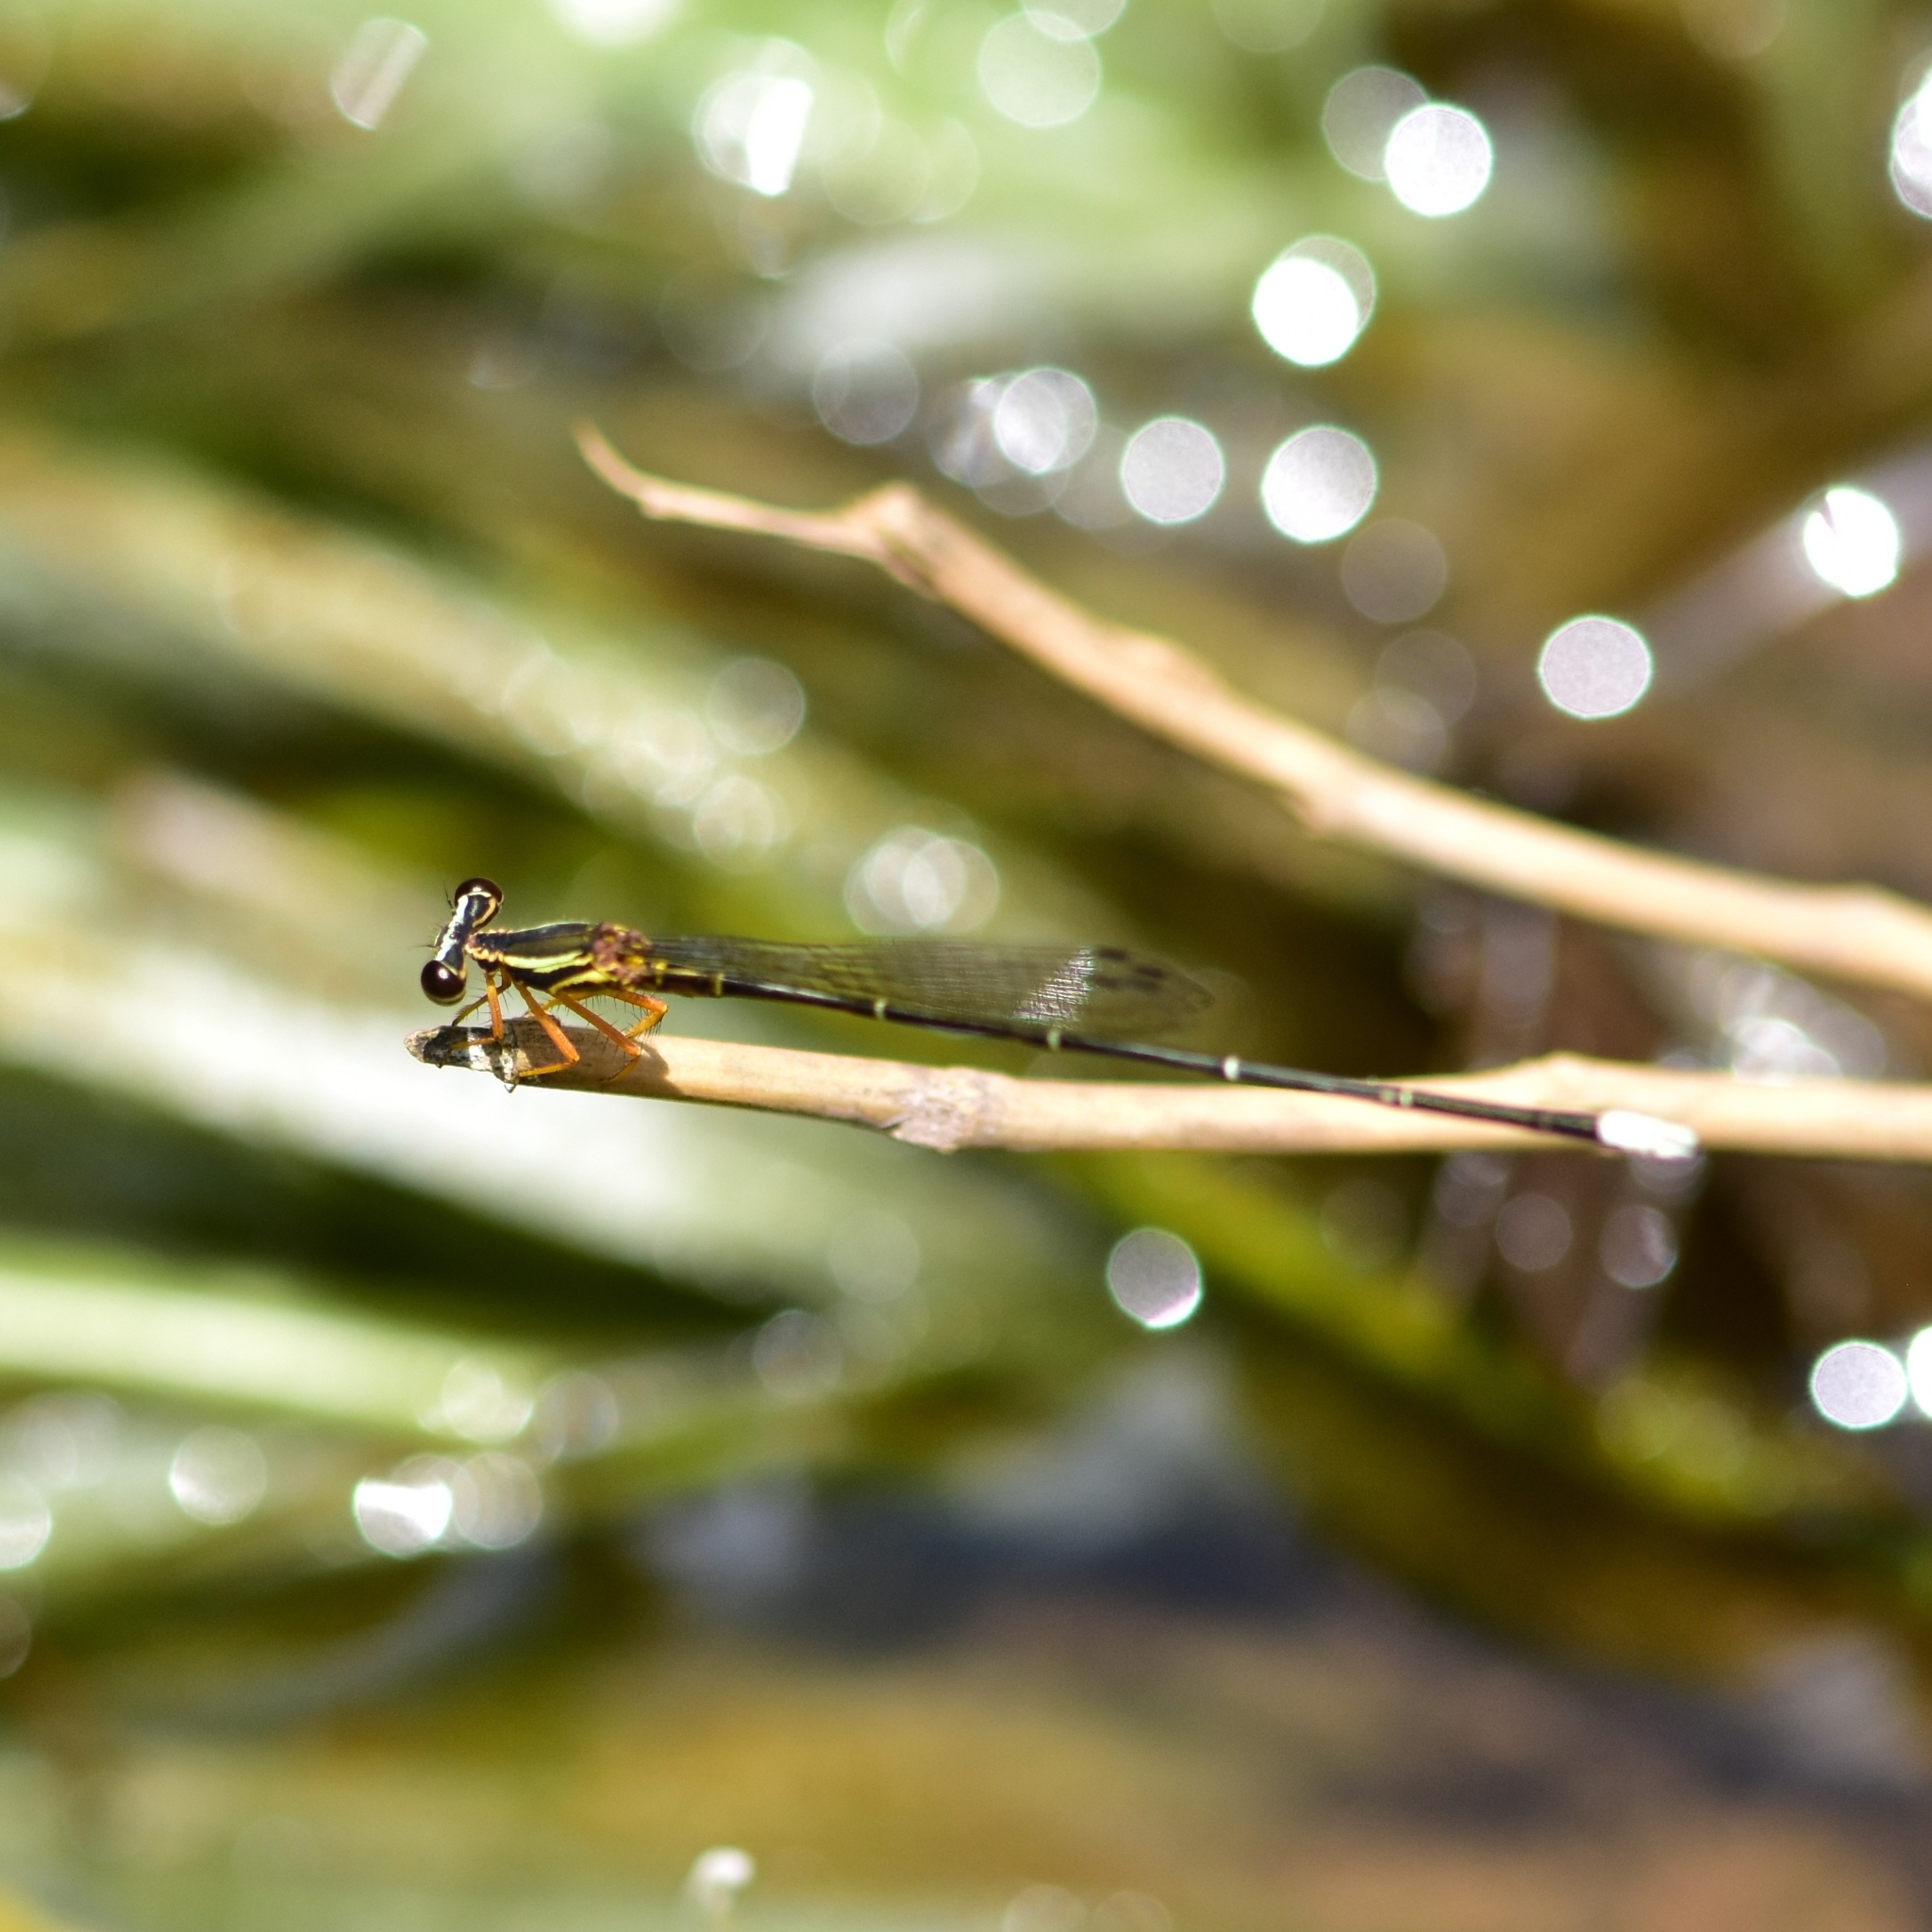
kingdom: Animalia
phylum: Arthropoda
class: Insecta
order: Odonata
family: Platycnemididae
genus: Copera
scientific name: Copera marginipes
